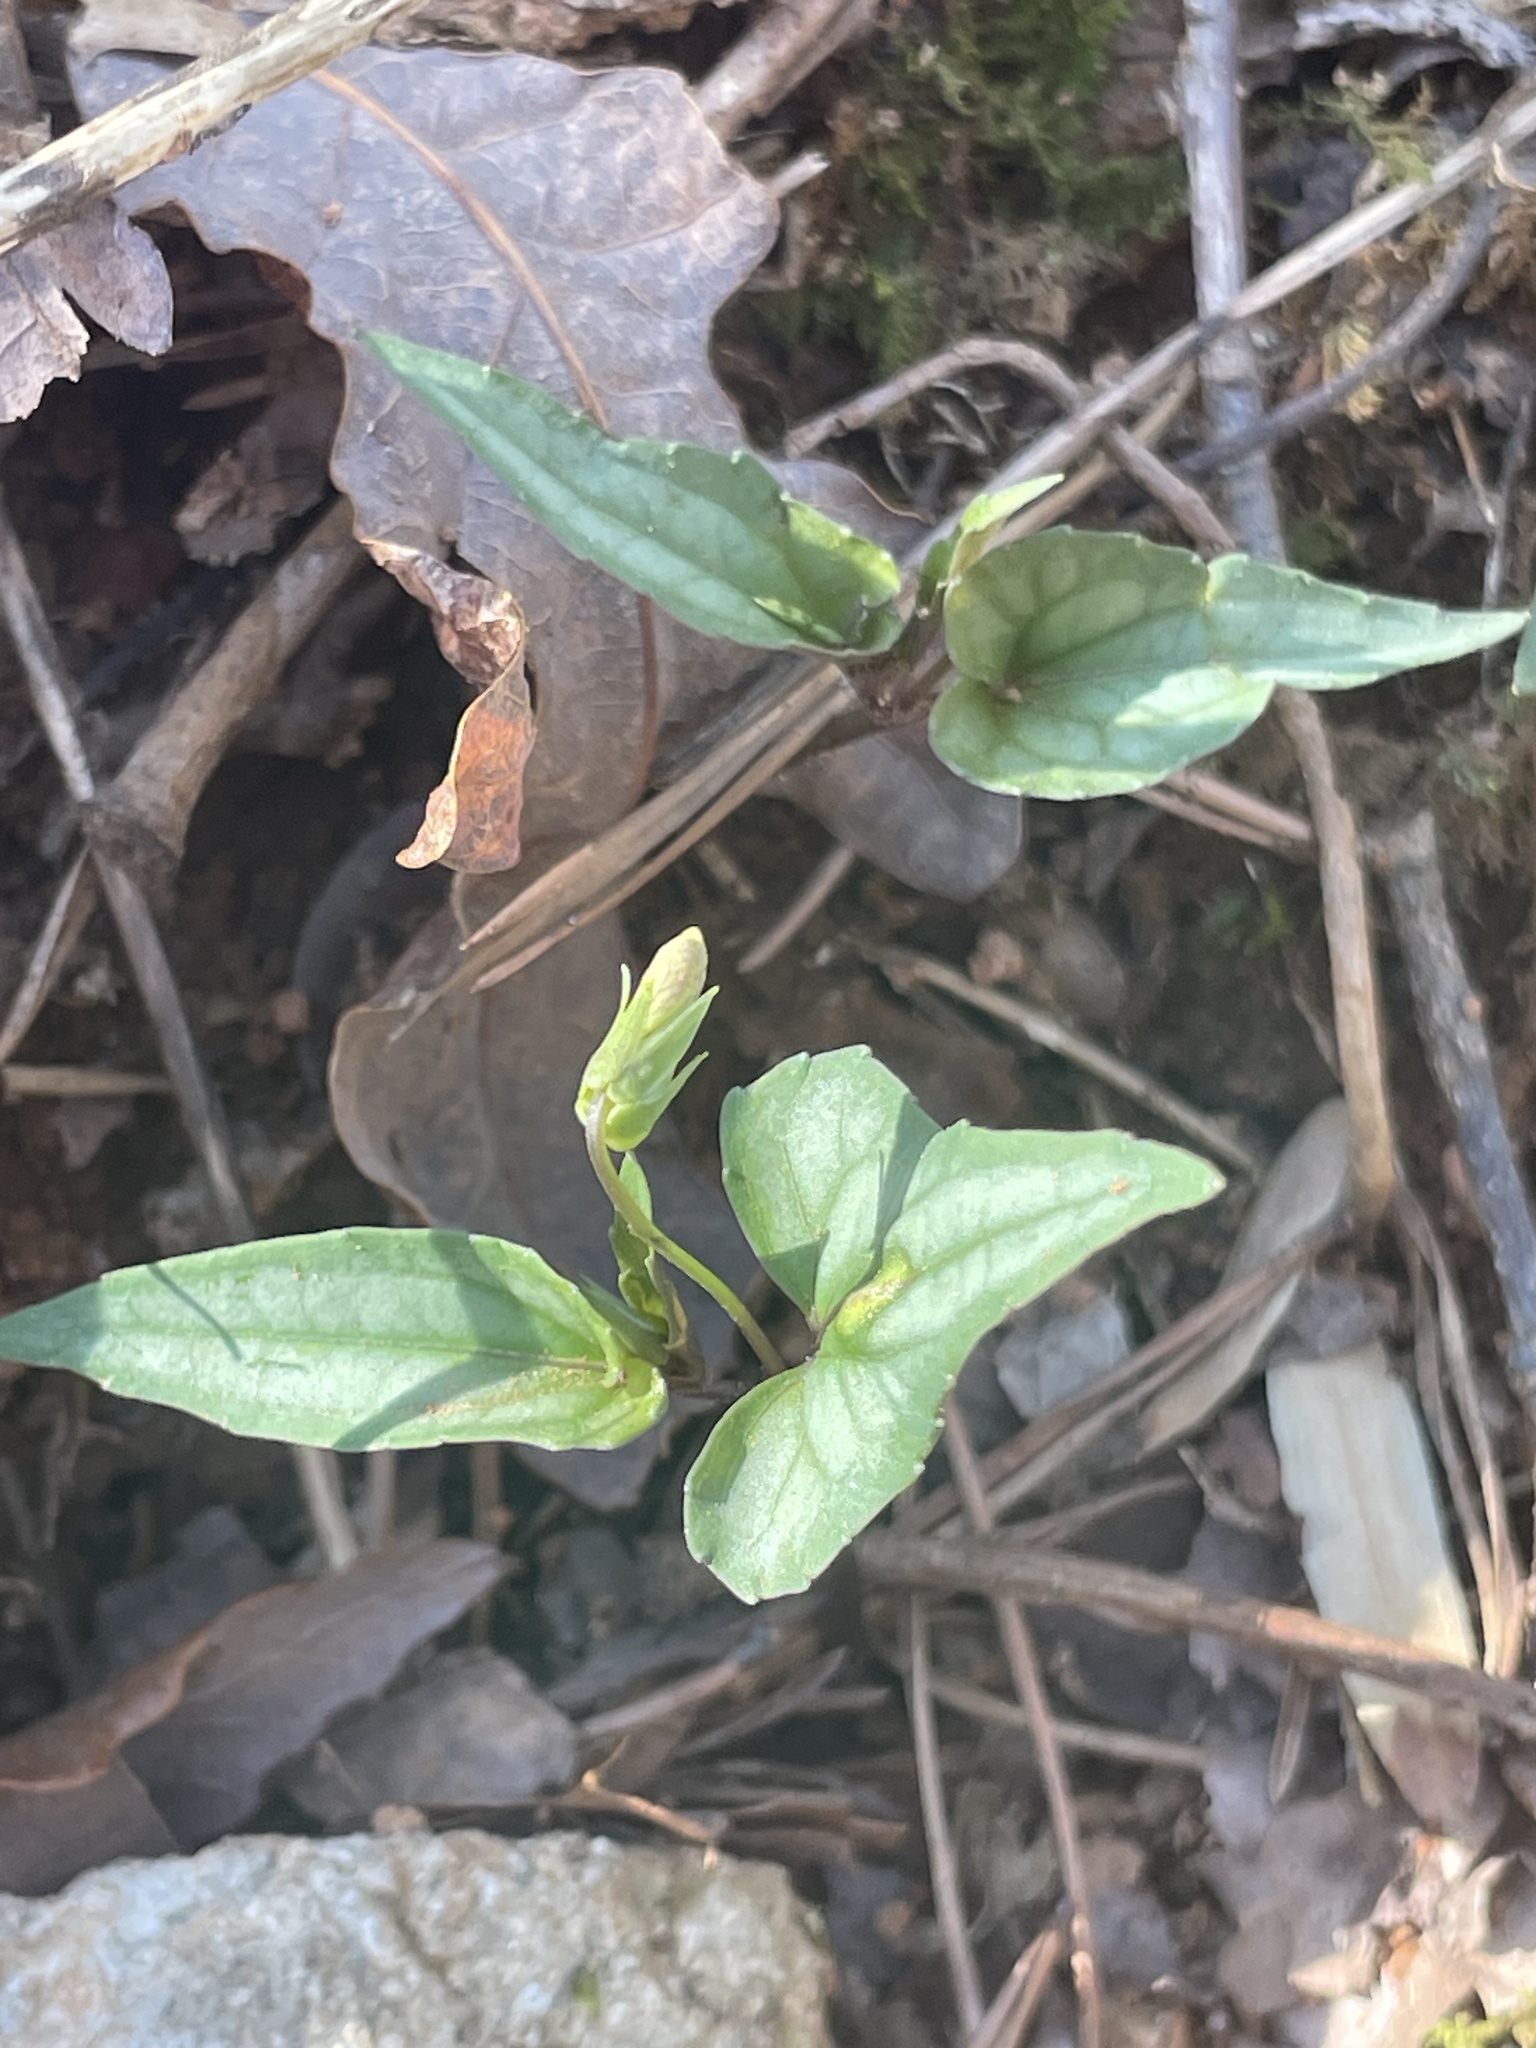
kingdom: Plantae
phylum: Tracheophyta
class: Magnoliopsida
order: Malpighiales
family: Violaceae
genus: Viola
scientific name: Viola hastata
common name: Spear-leaf violet
